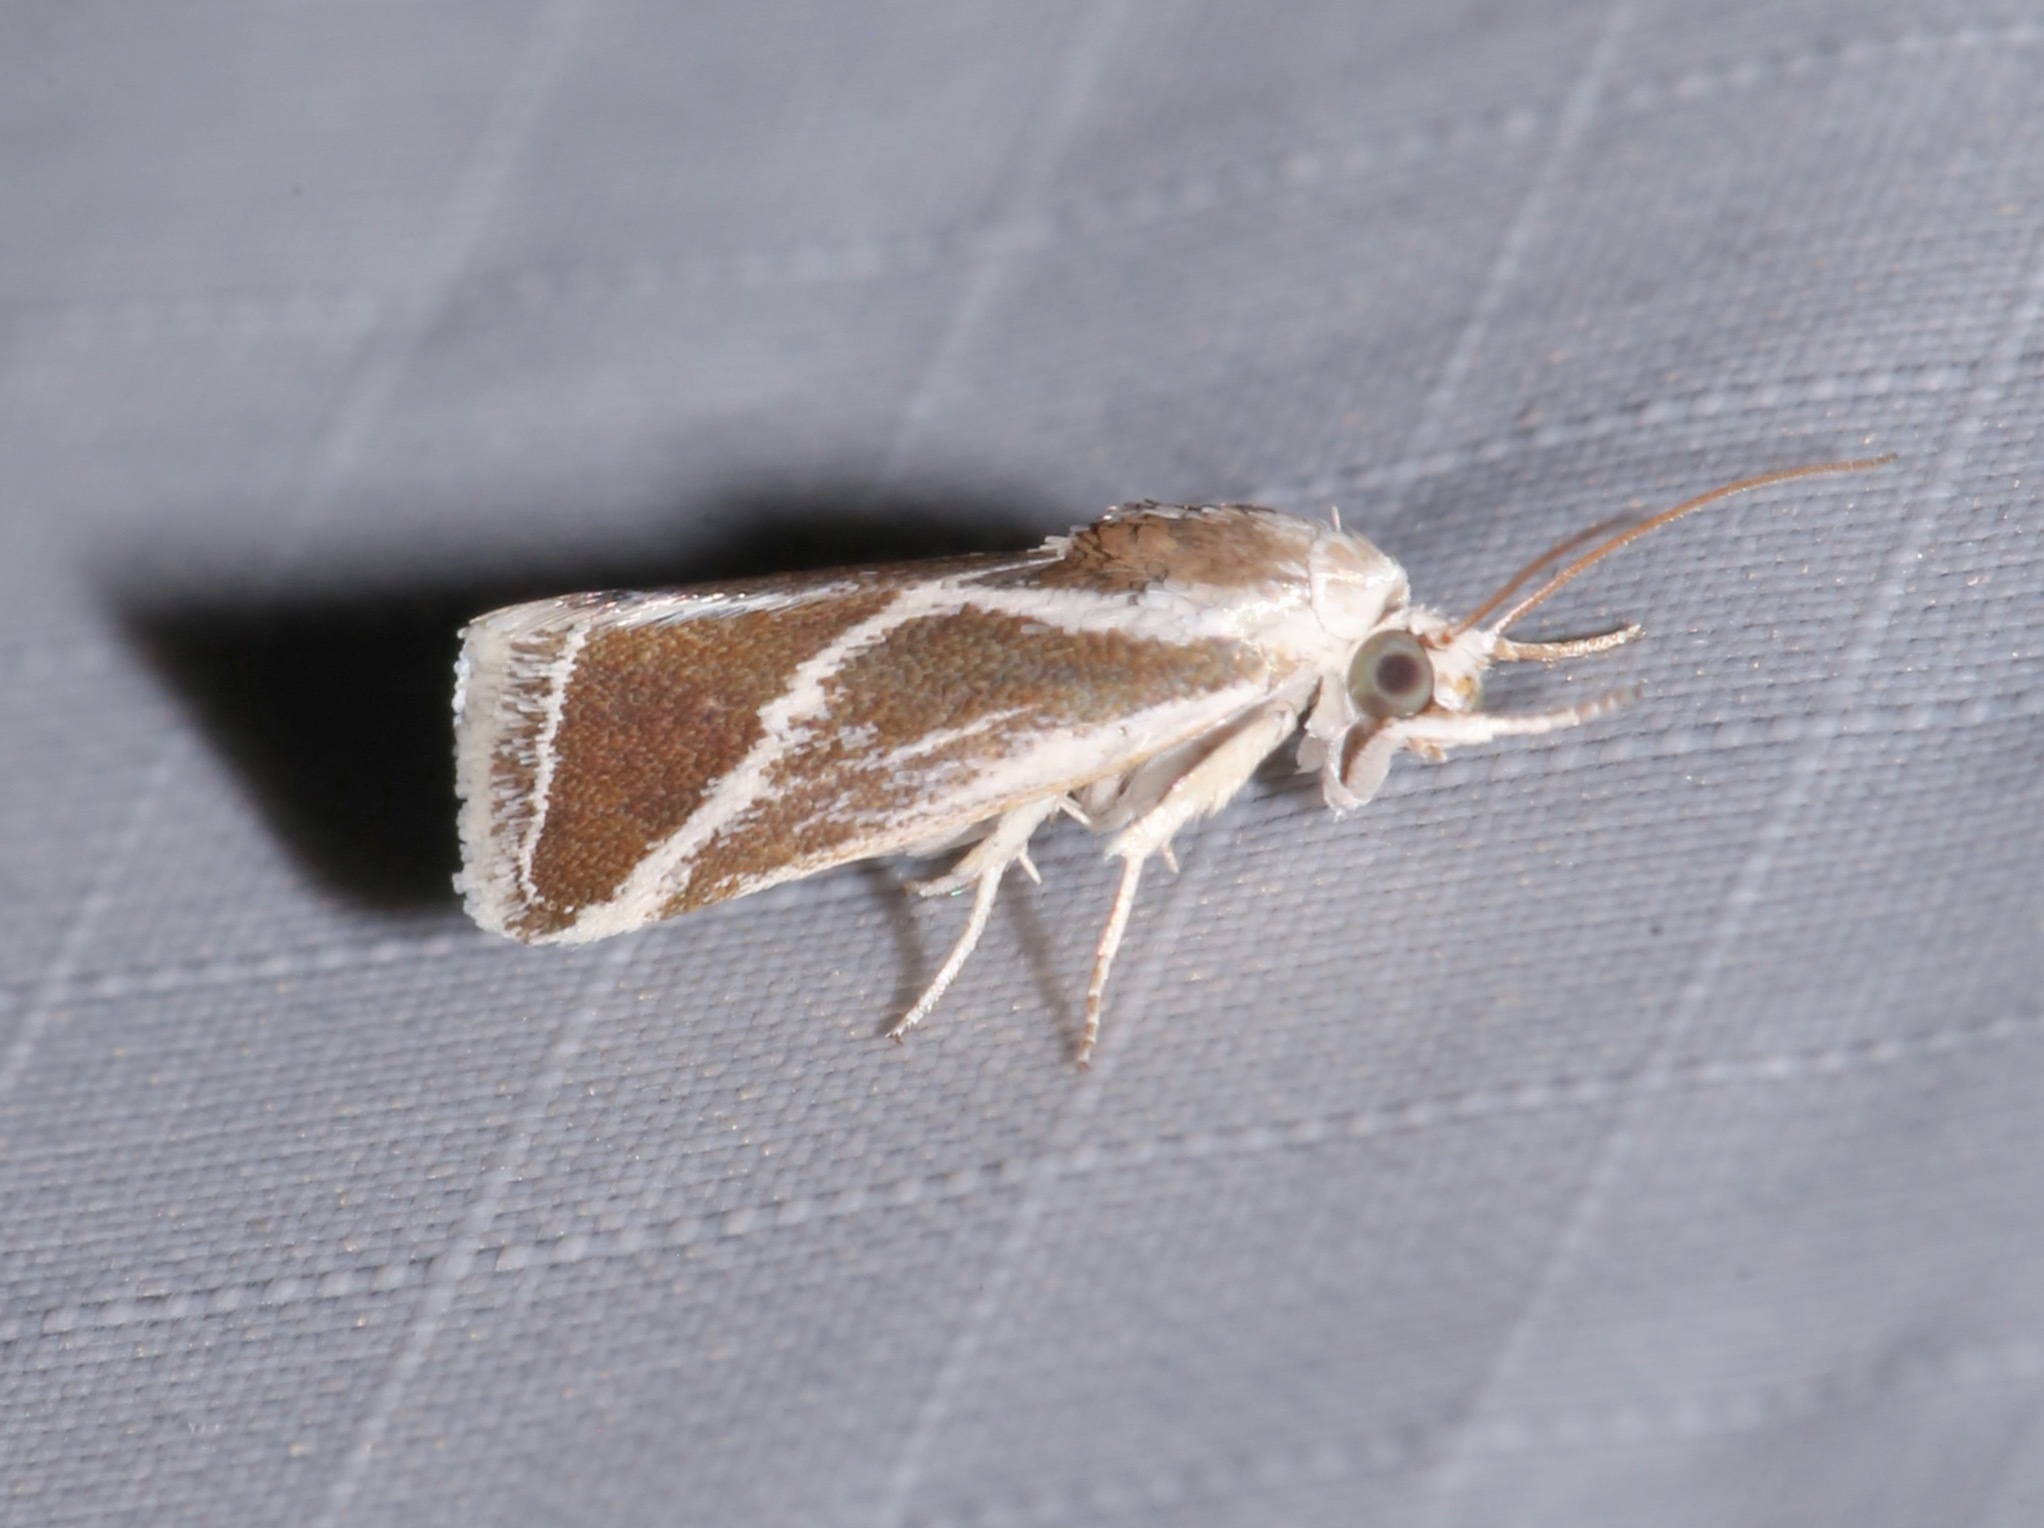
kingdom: Animalia
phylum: Arthropoda
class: Insecta
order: Lepidoptera
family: Noctuidae
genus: Acontia
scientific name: Acontia alata
